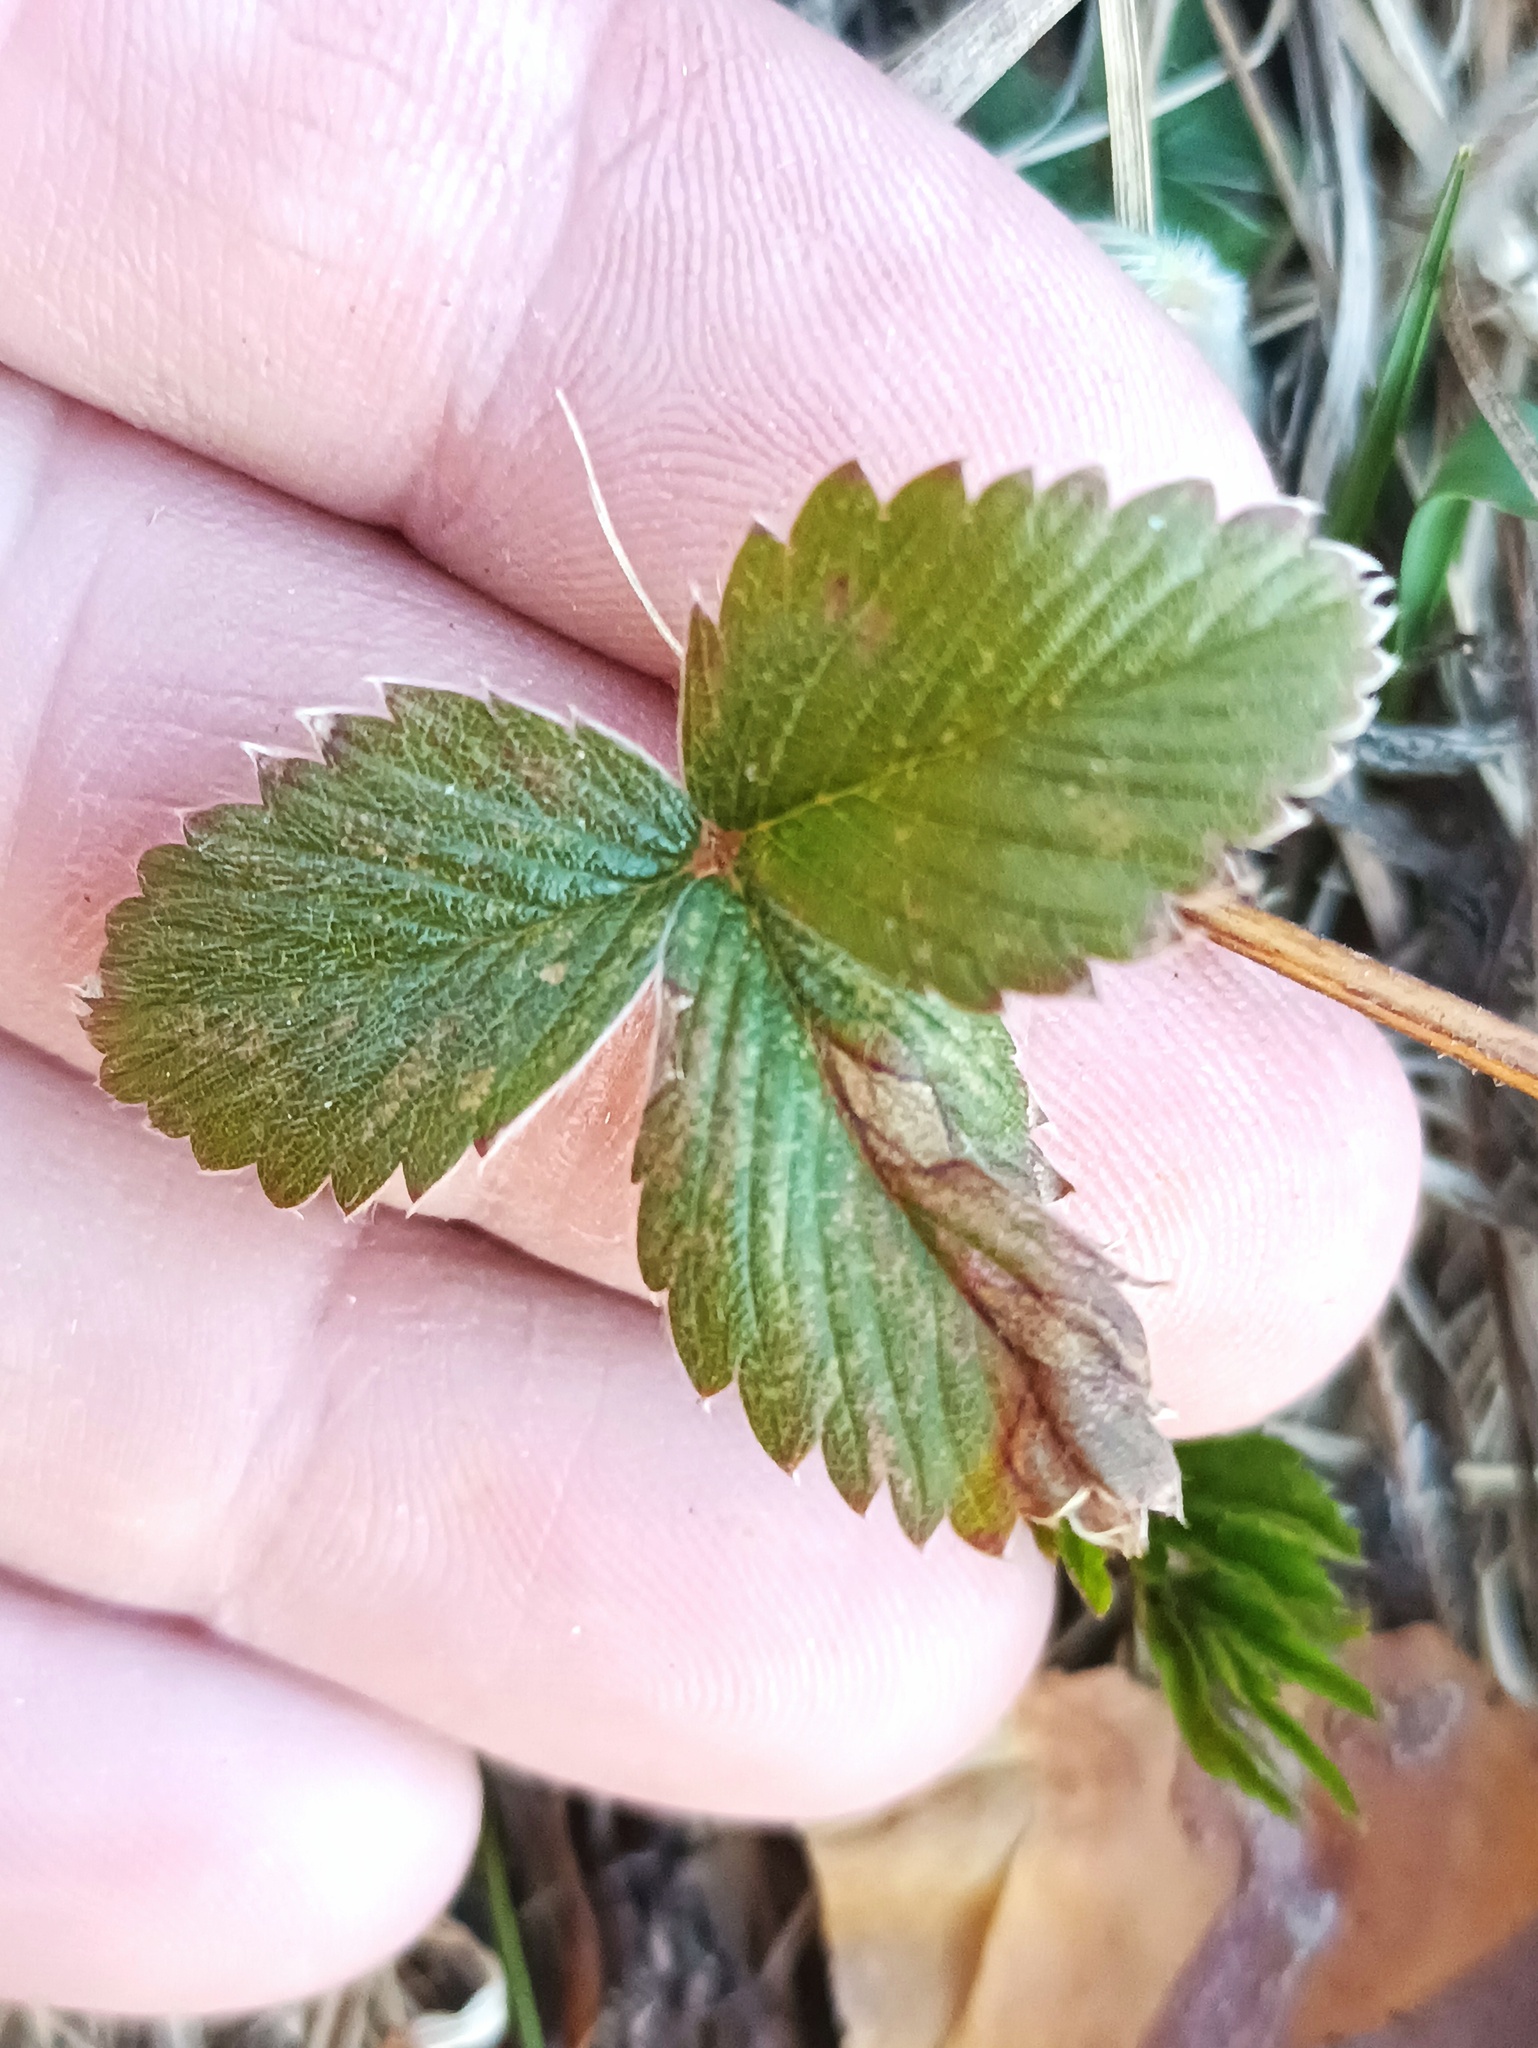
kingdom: Plantae
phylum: Tracheophyta
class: Magnoliopsida
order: Rosales
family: Rosaceae
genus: Fragaria
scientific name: Fragaria viridis
